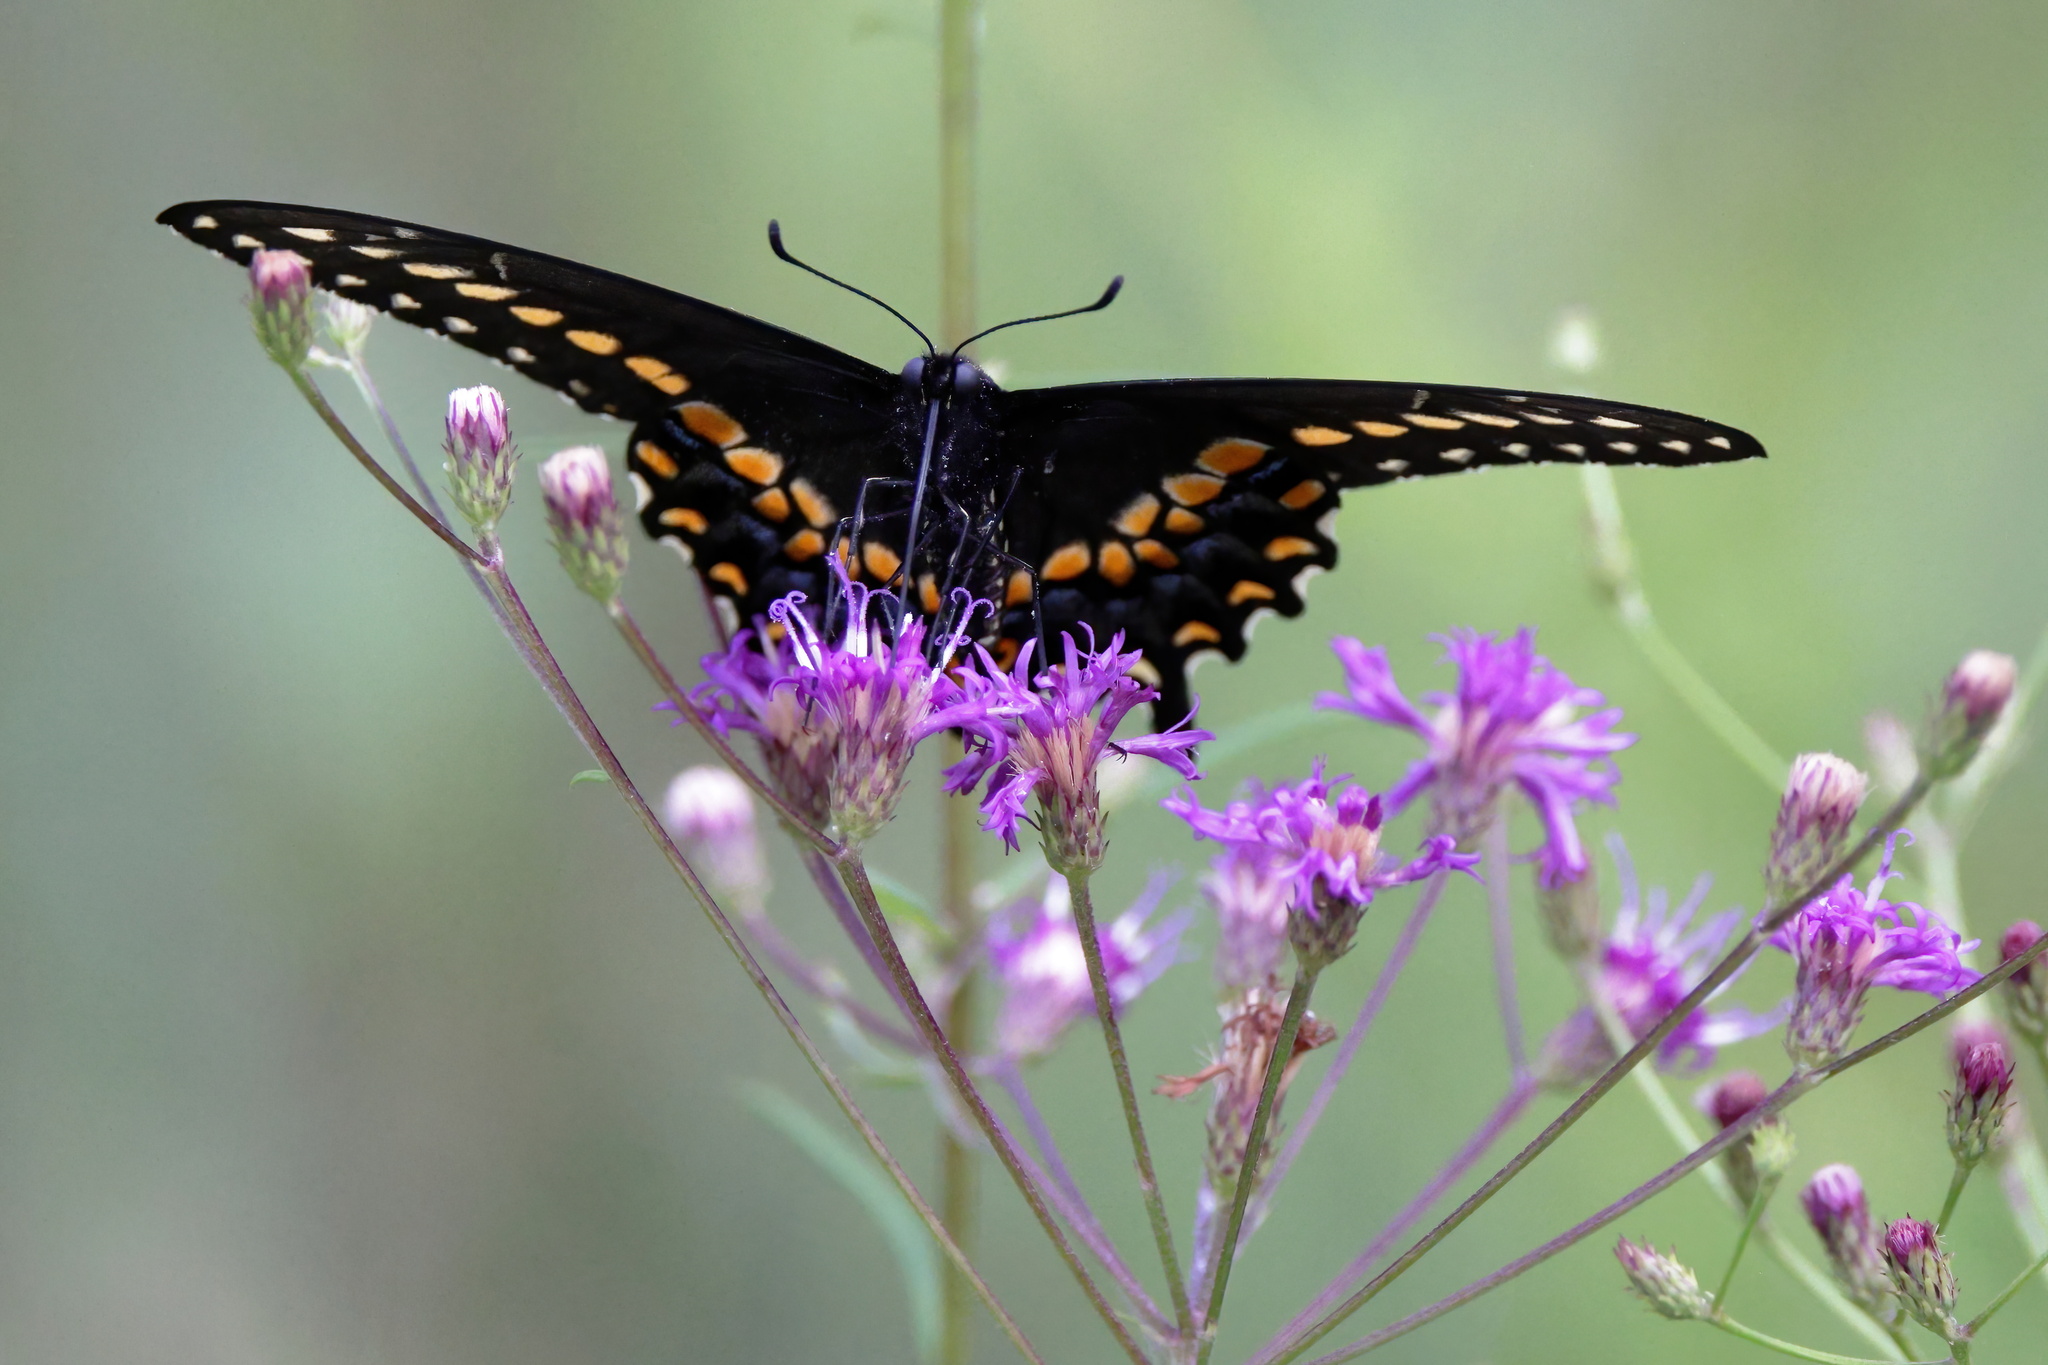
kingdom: Animalia
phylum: Arthropoda
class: Insecta
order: Lepidoptera
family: Papilionidae
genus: Papilio
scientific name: Papilio polyxenes
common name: Black swallowtail
